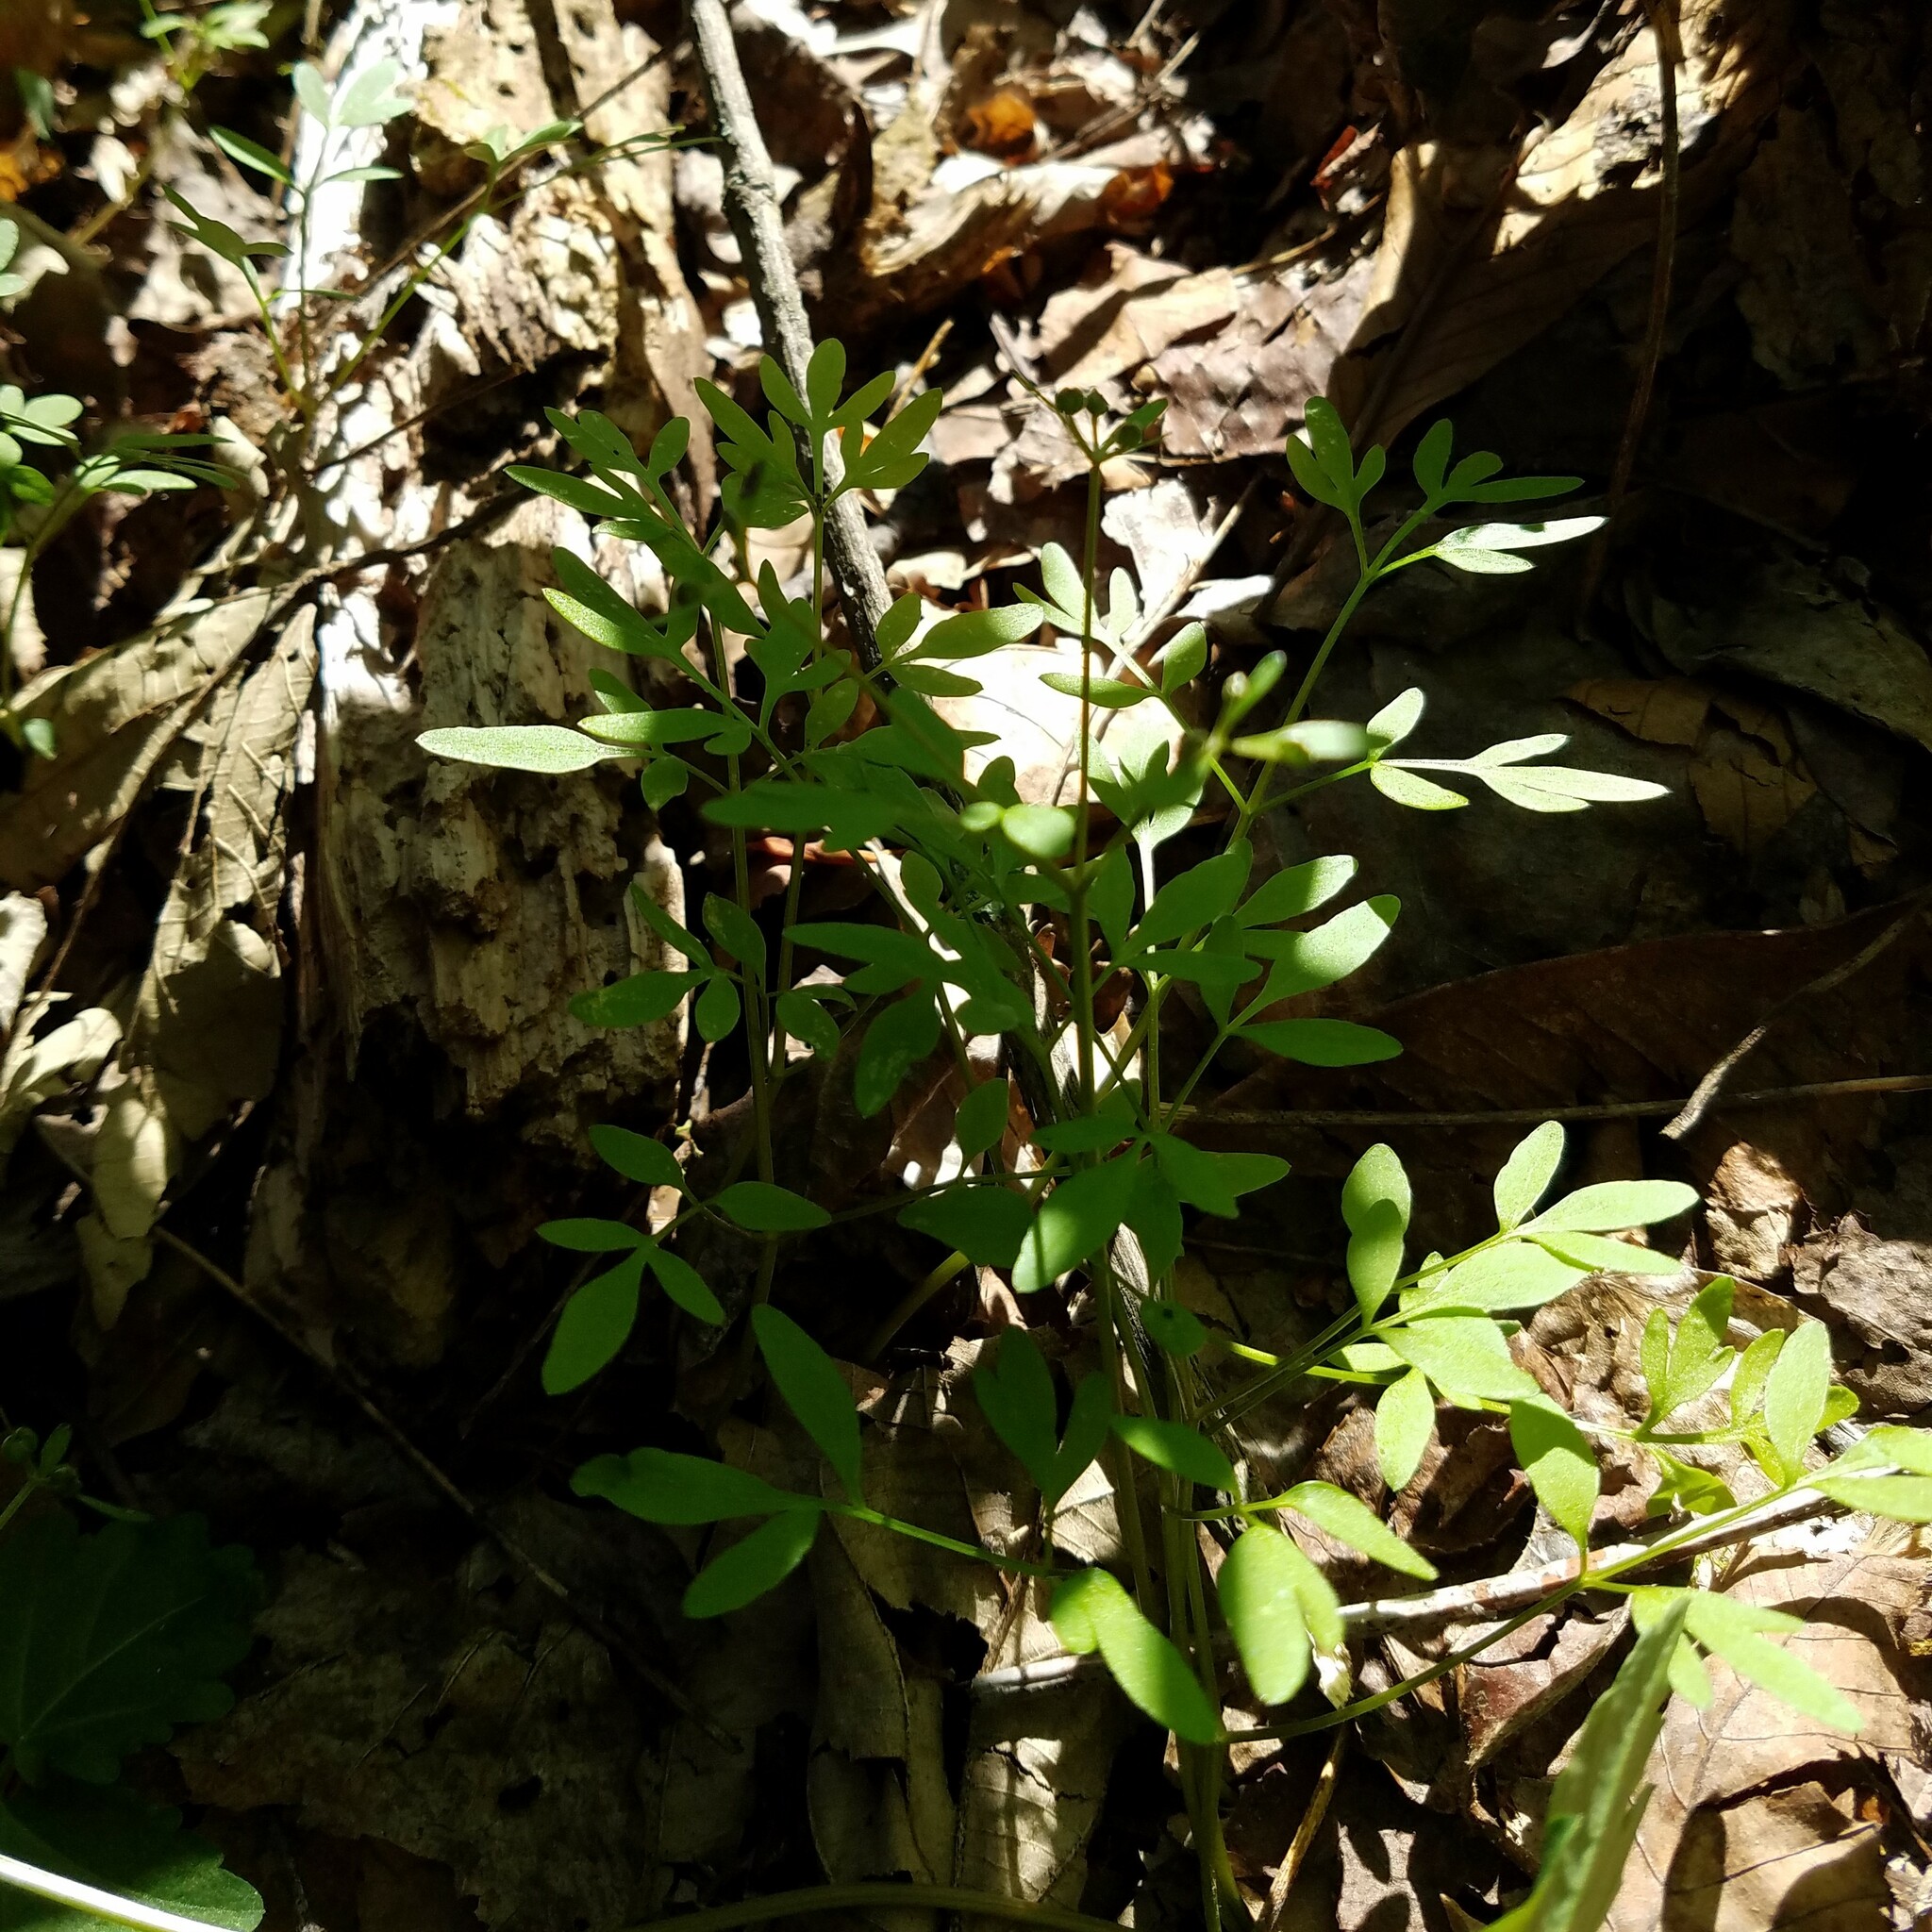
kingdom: Plantae
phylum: Tracheophyta
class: Magnoliopsida
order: Apiales
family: Apiaceae
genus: Erigenia
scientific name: Erigenia bulbosa
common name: Pepper-and-salt
